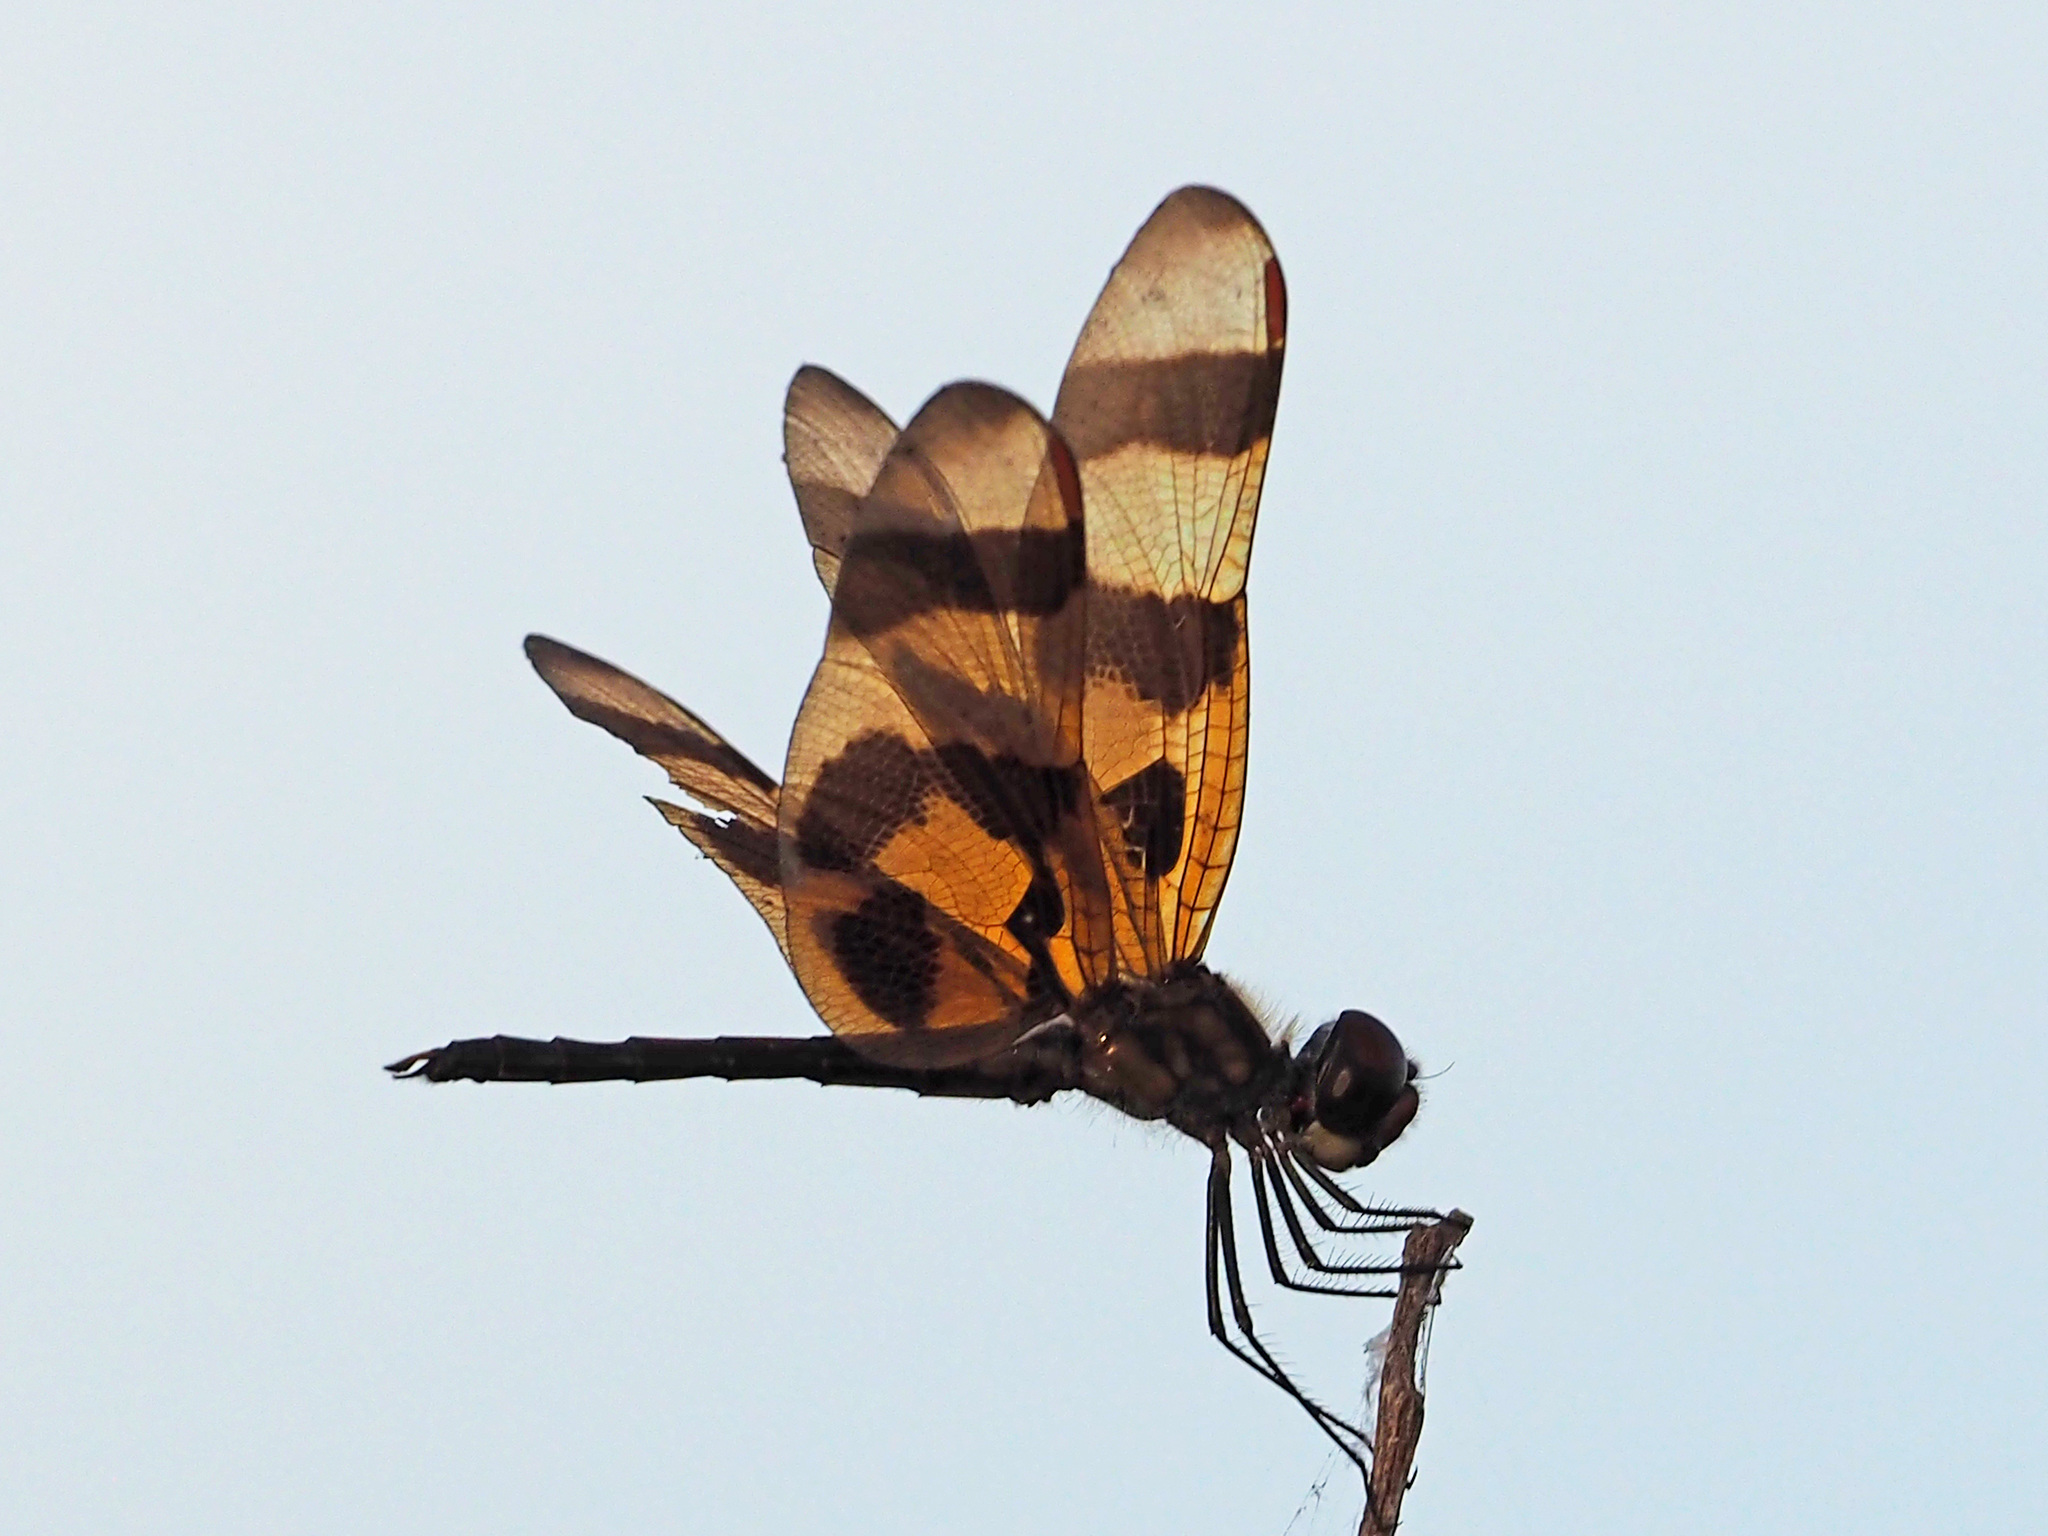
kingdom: Animalia
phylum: Arthropoda
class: Insecta
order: Odonata
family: Libellulidae
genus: Celithemis
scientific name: Celithemis eponina
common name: Halloween pennant
